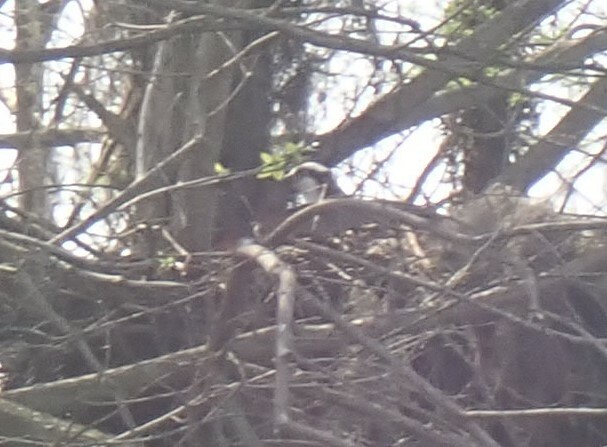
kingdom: Animalia
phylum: Chordata
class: Aves
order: Accipitriformes
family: Pandionidae
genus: Pandion
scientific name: Pandion haliaetus
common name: Osprey
